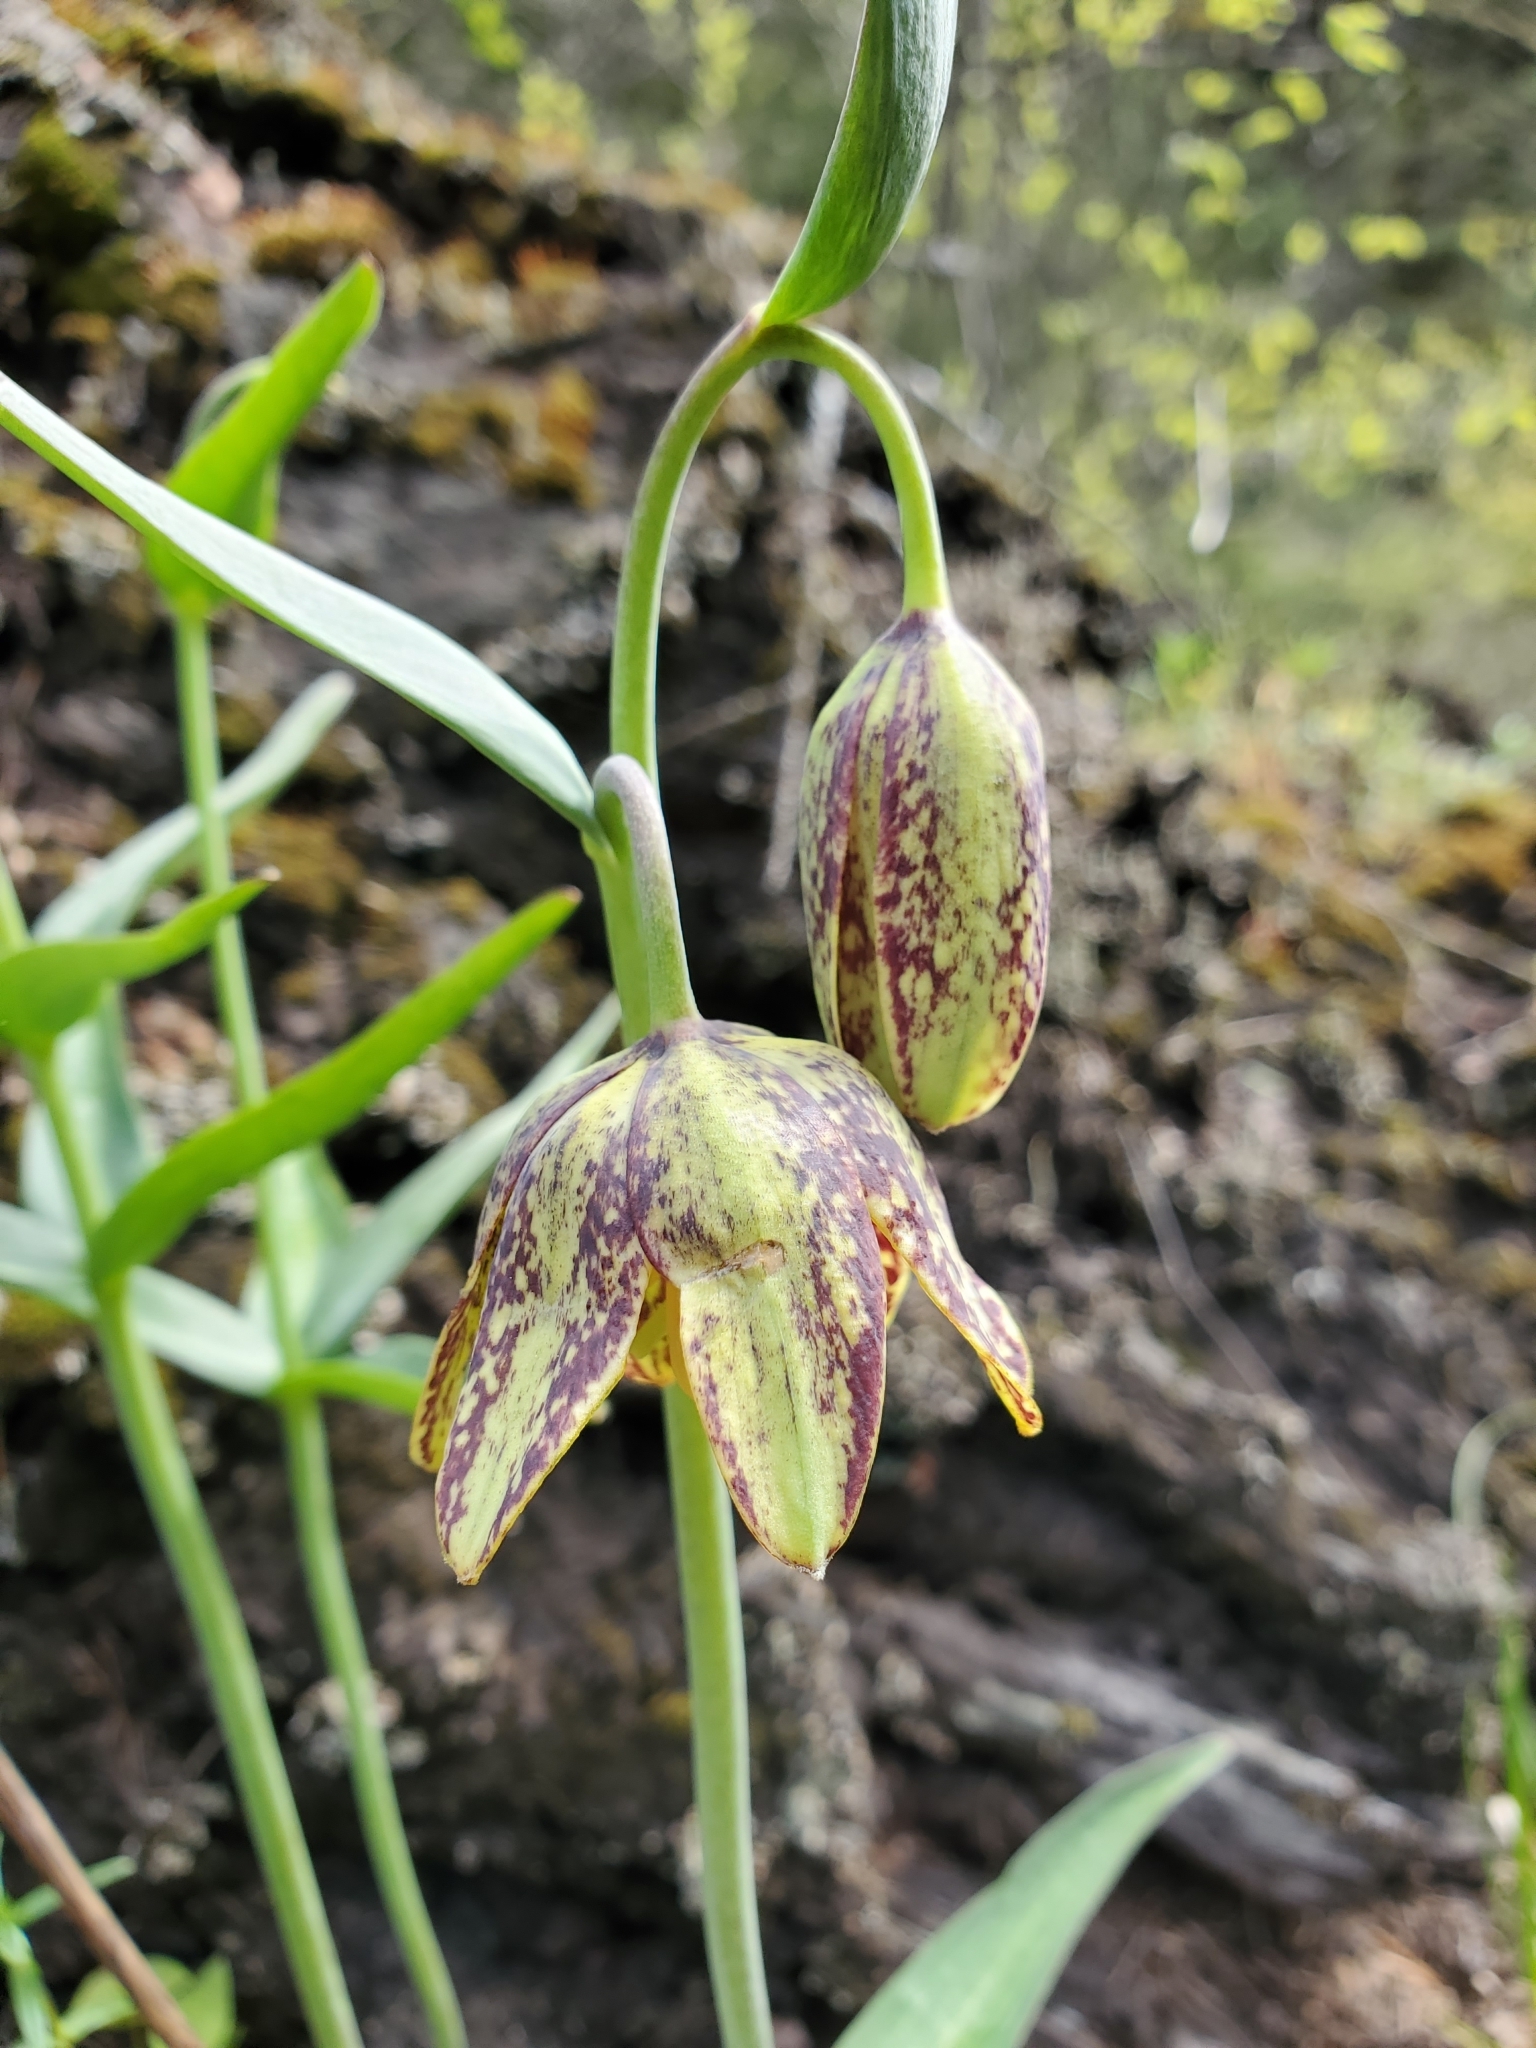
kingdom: Plantae
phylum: Tracheophyta
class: Liliopsida
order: Liliales
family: Liliaceae
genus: Fritillaria
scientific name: Fritillaria affinis
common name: Ojai fritillary
